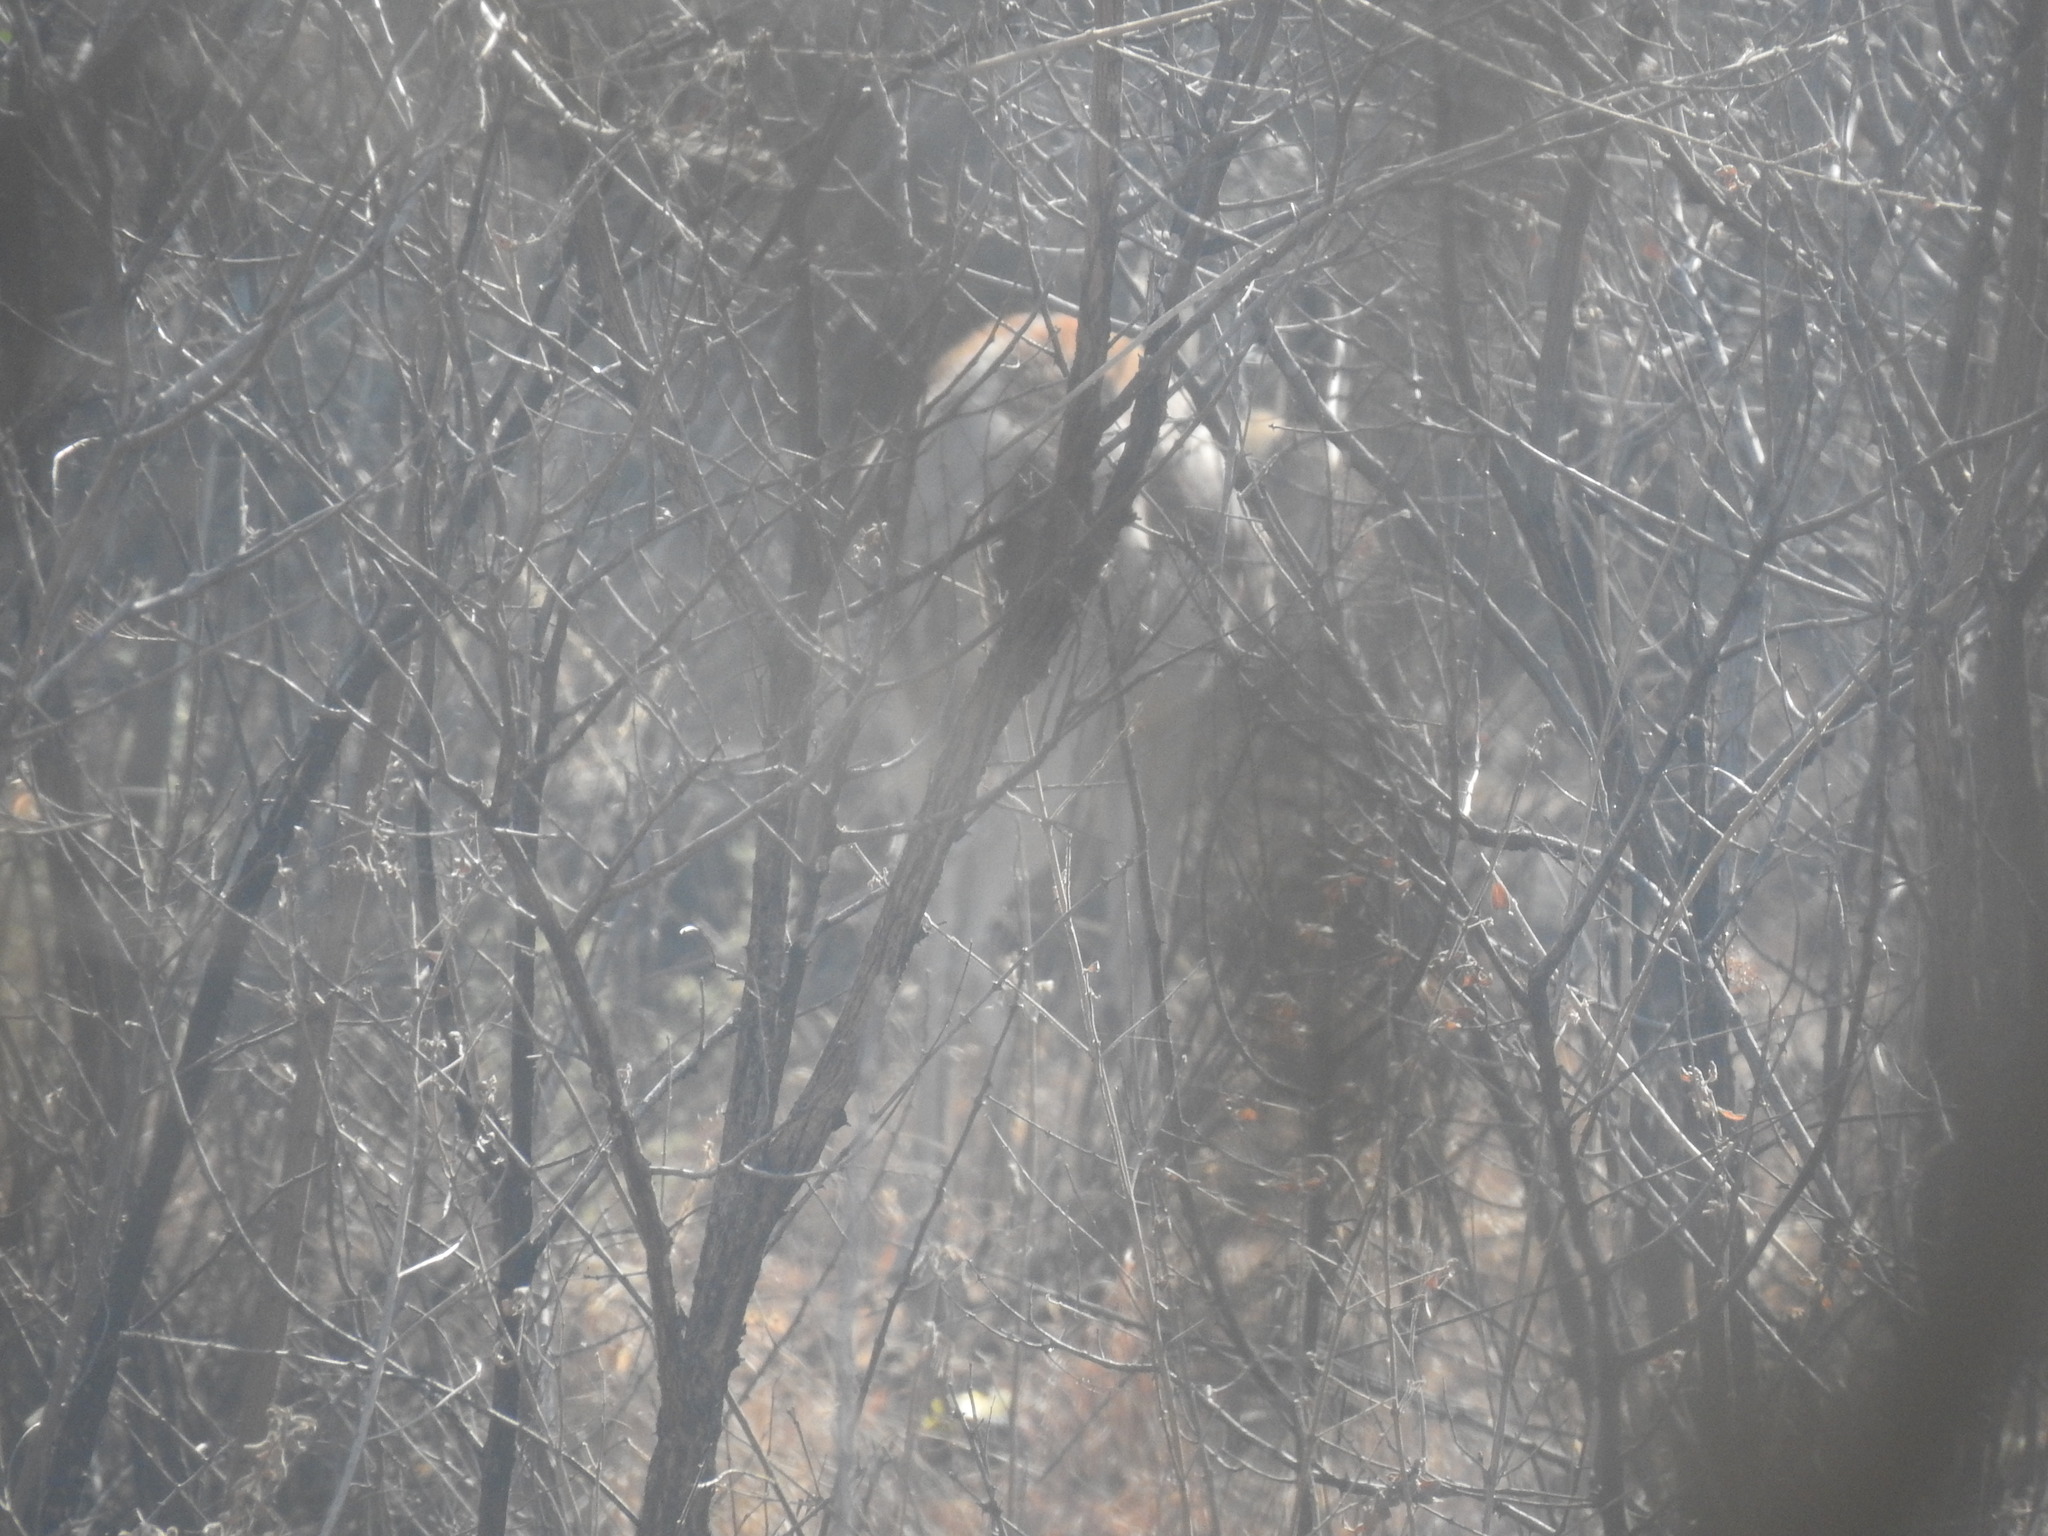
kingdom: Animalia
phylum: Chordata
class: Mammalia
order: Artiodactyla
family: Bovidae
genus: Antidorcas
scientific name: Antidorcas marsupialis
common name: Springbok
